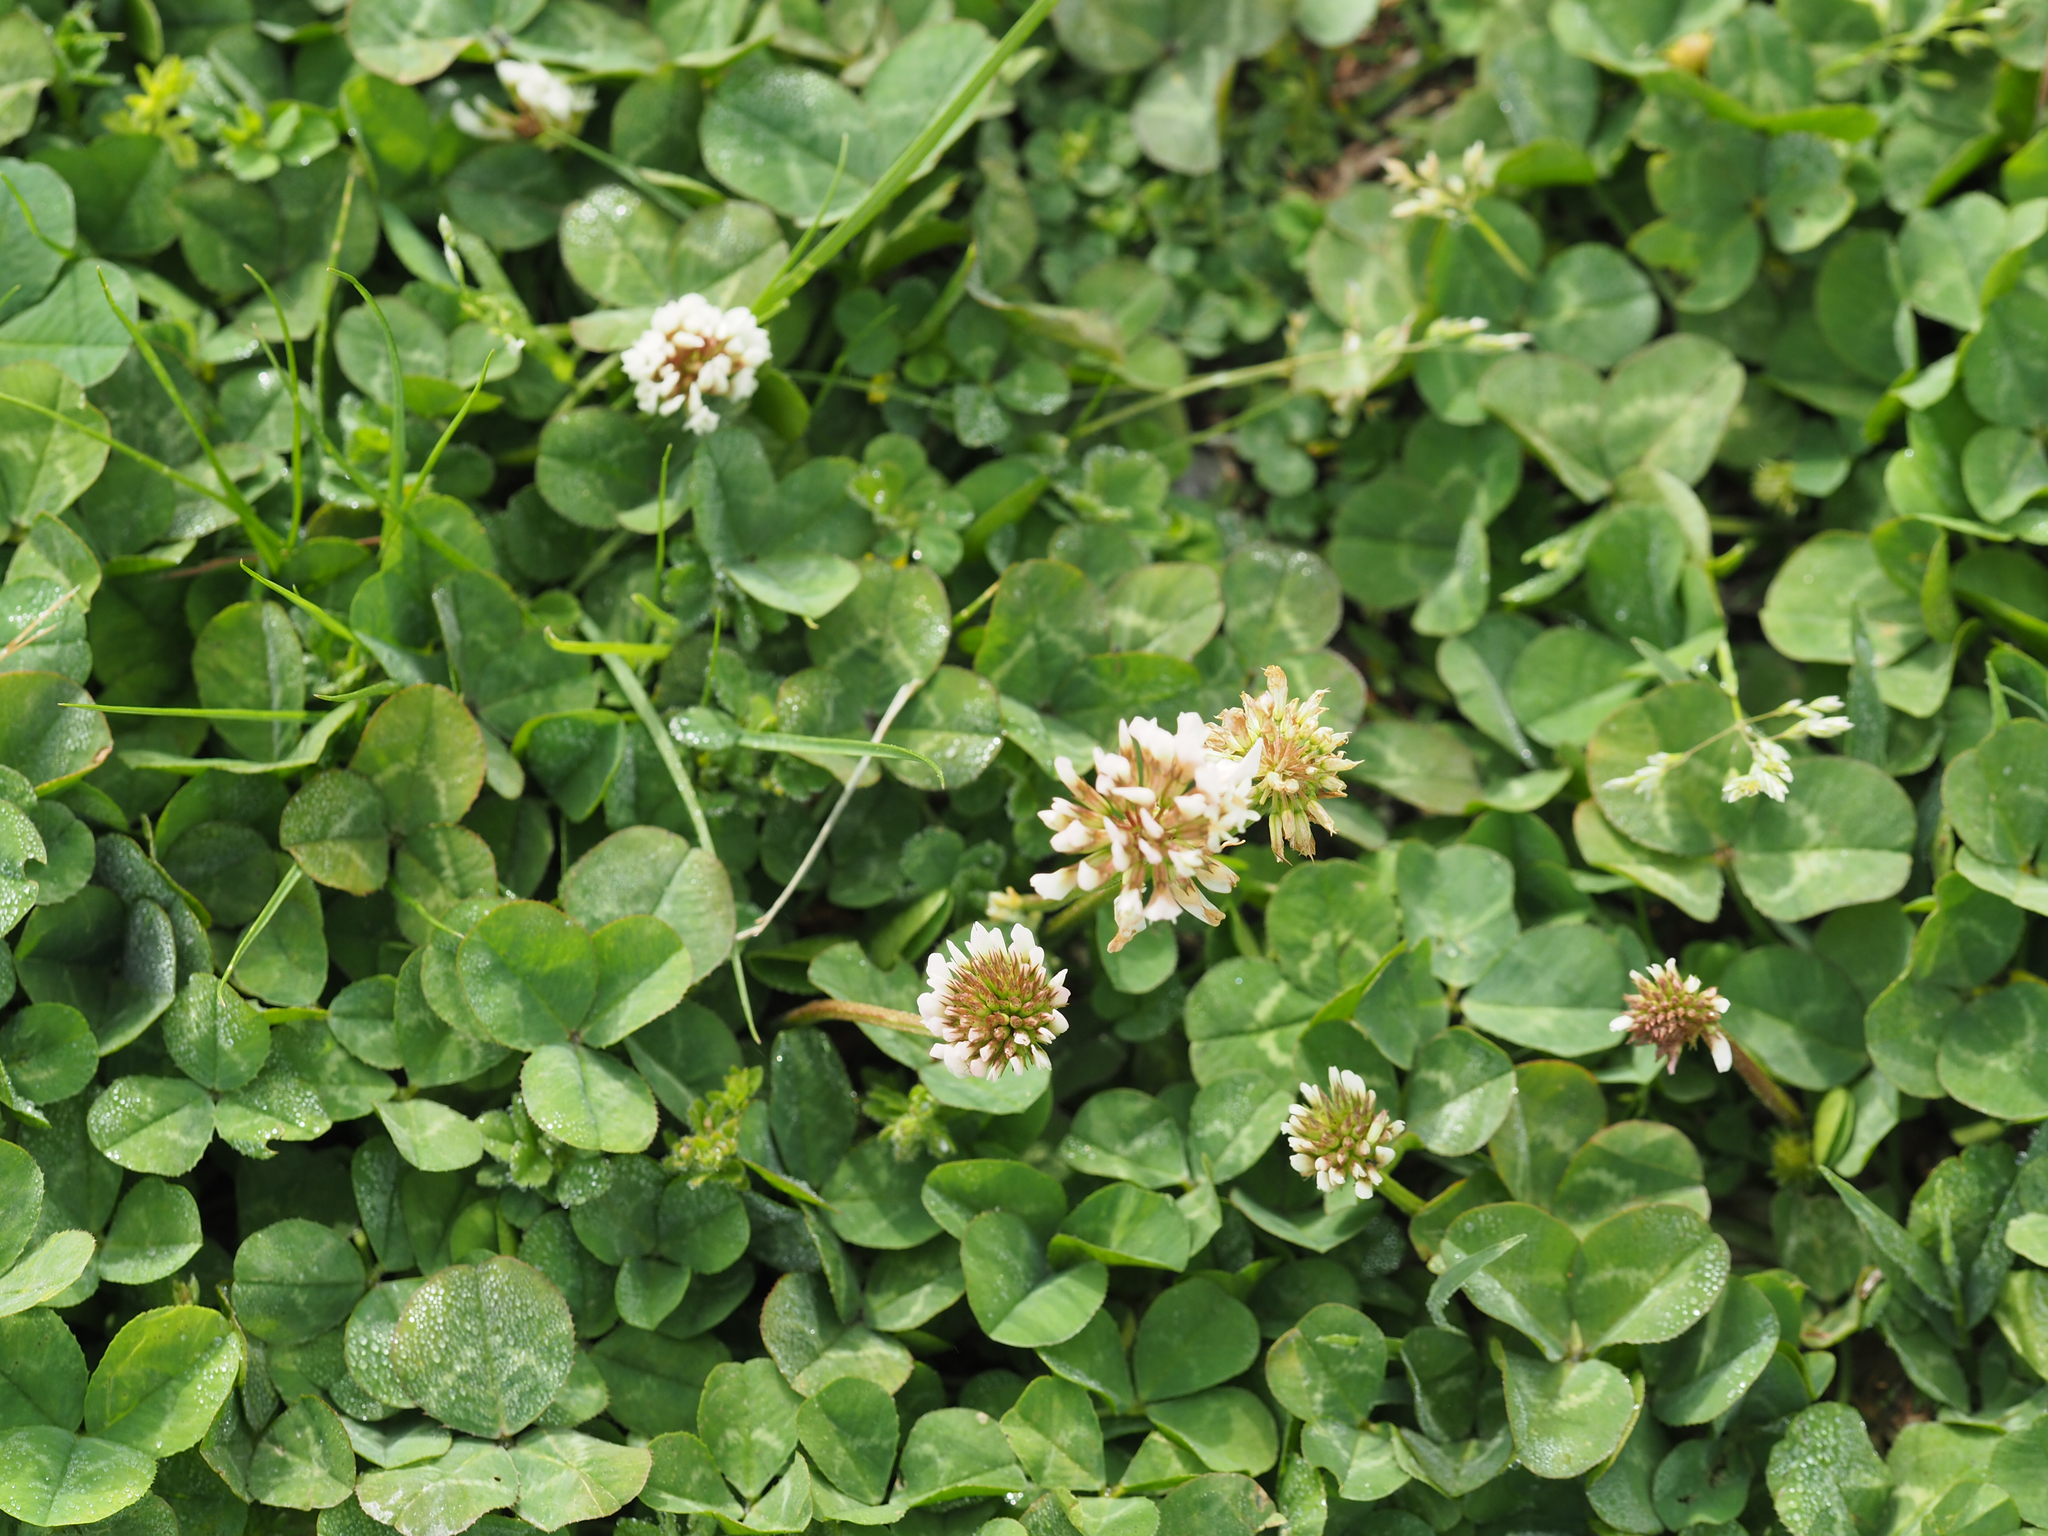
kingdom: Plantae
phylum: Tracheophyta
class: Magnoliopsida
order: Fabales
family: Fabaceae
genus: Trifolium
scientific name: Trifolium repens
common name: White clover
